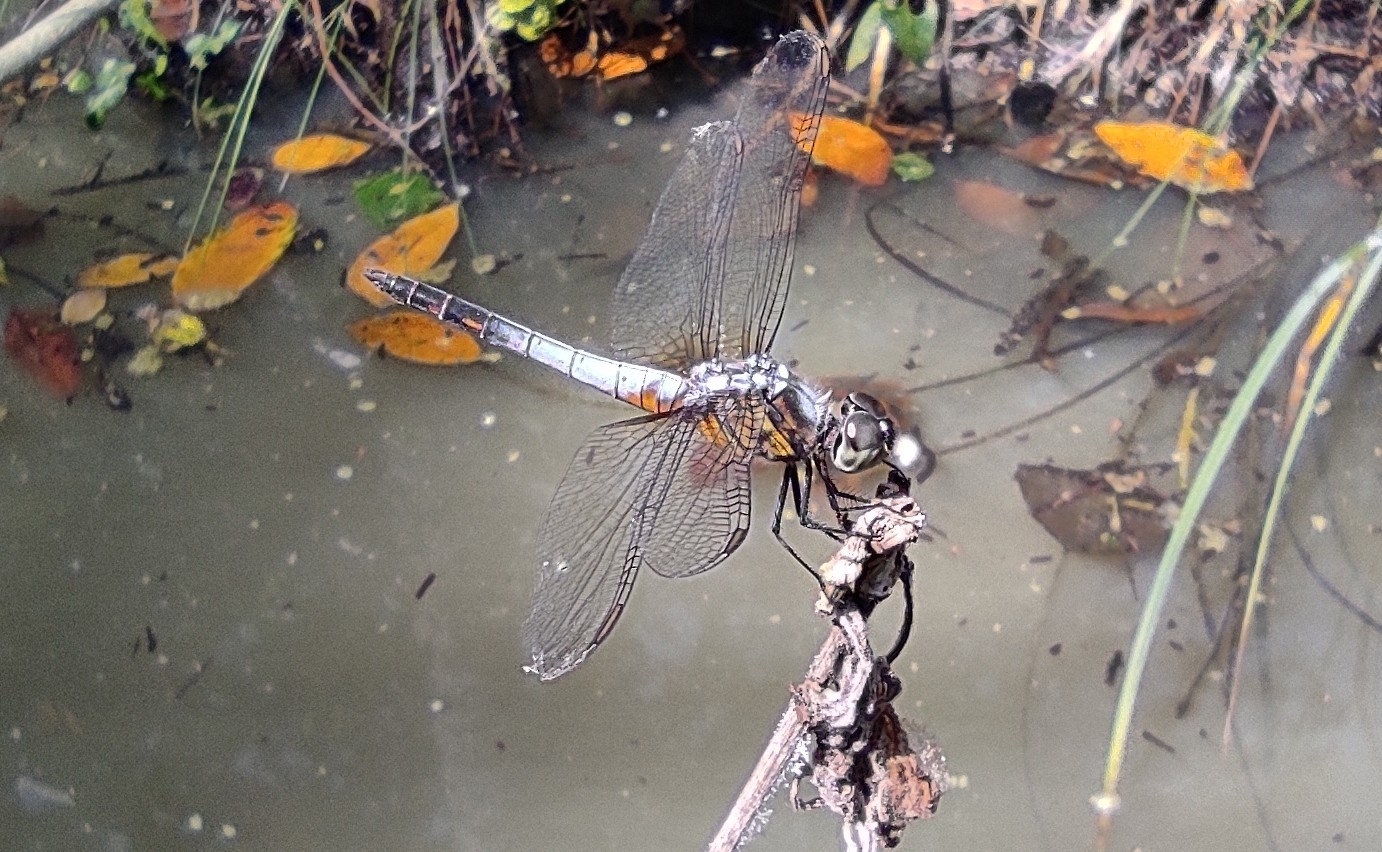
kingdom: Animalia
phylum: Arthropoda
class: Insecta
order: Odonata
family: Libellulidae
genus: Brachydiplax
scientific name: Brachydiplax chalybea
